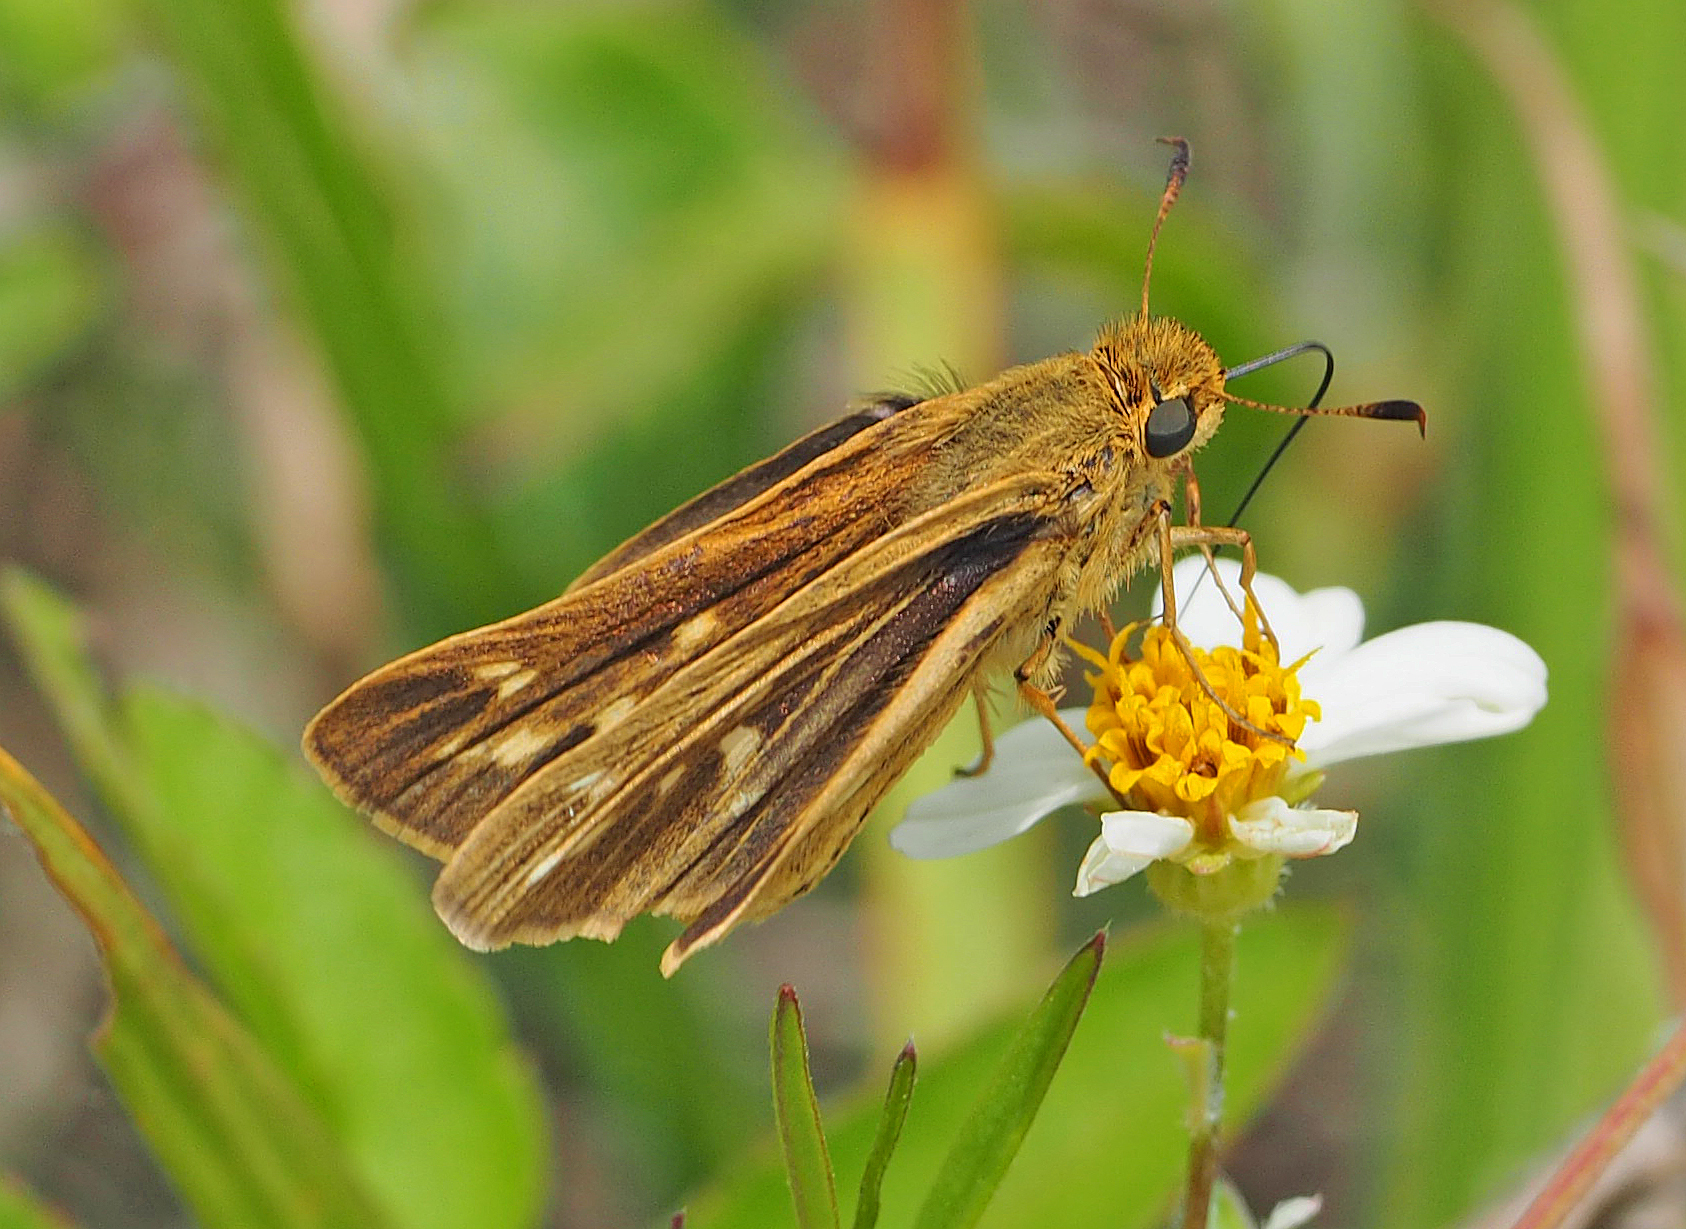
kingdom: Animalia
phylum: Arthropoda
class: Insecta
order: Lepidoptera
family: Hesperiidae
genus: Panoquina
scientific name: Panoquina panoquin
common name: Salt marsh skipper
